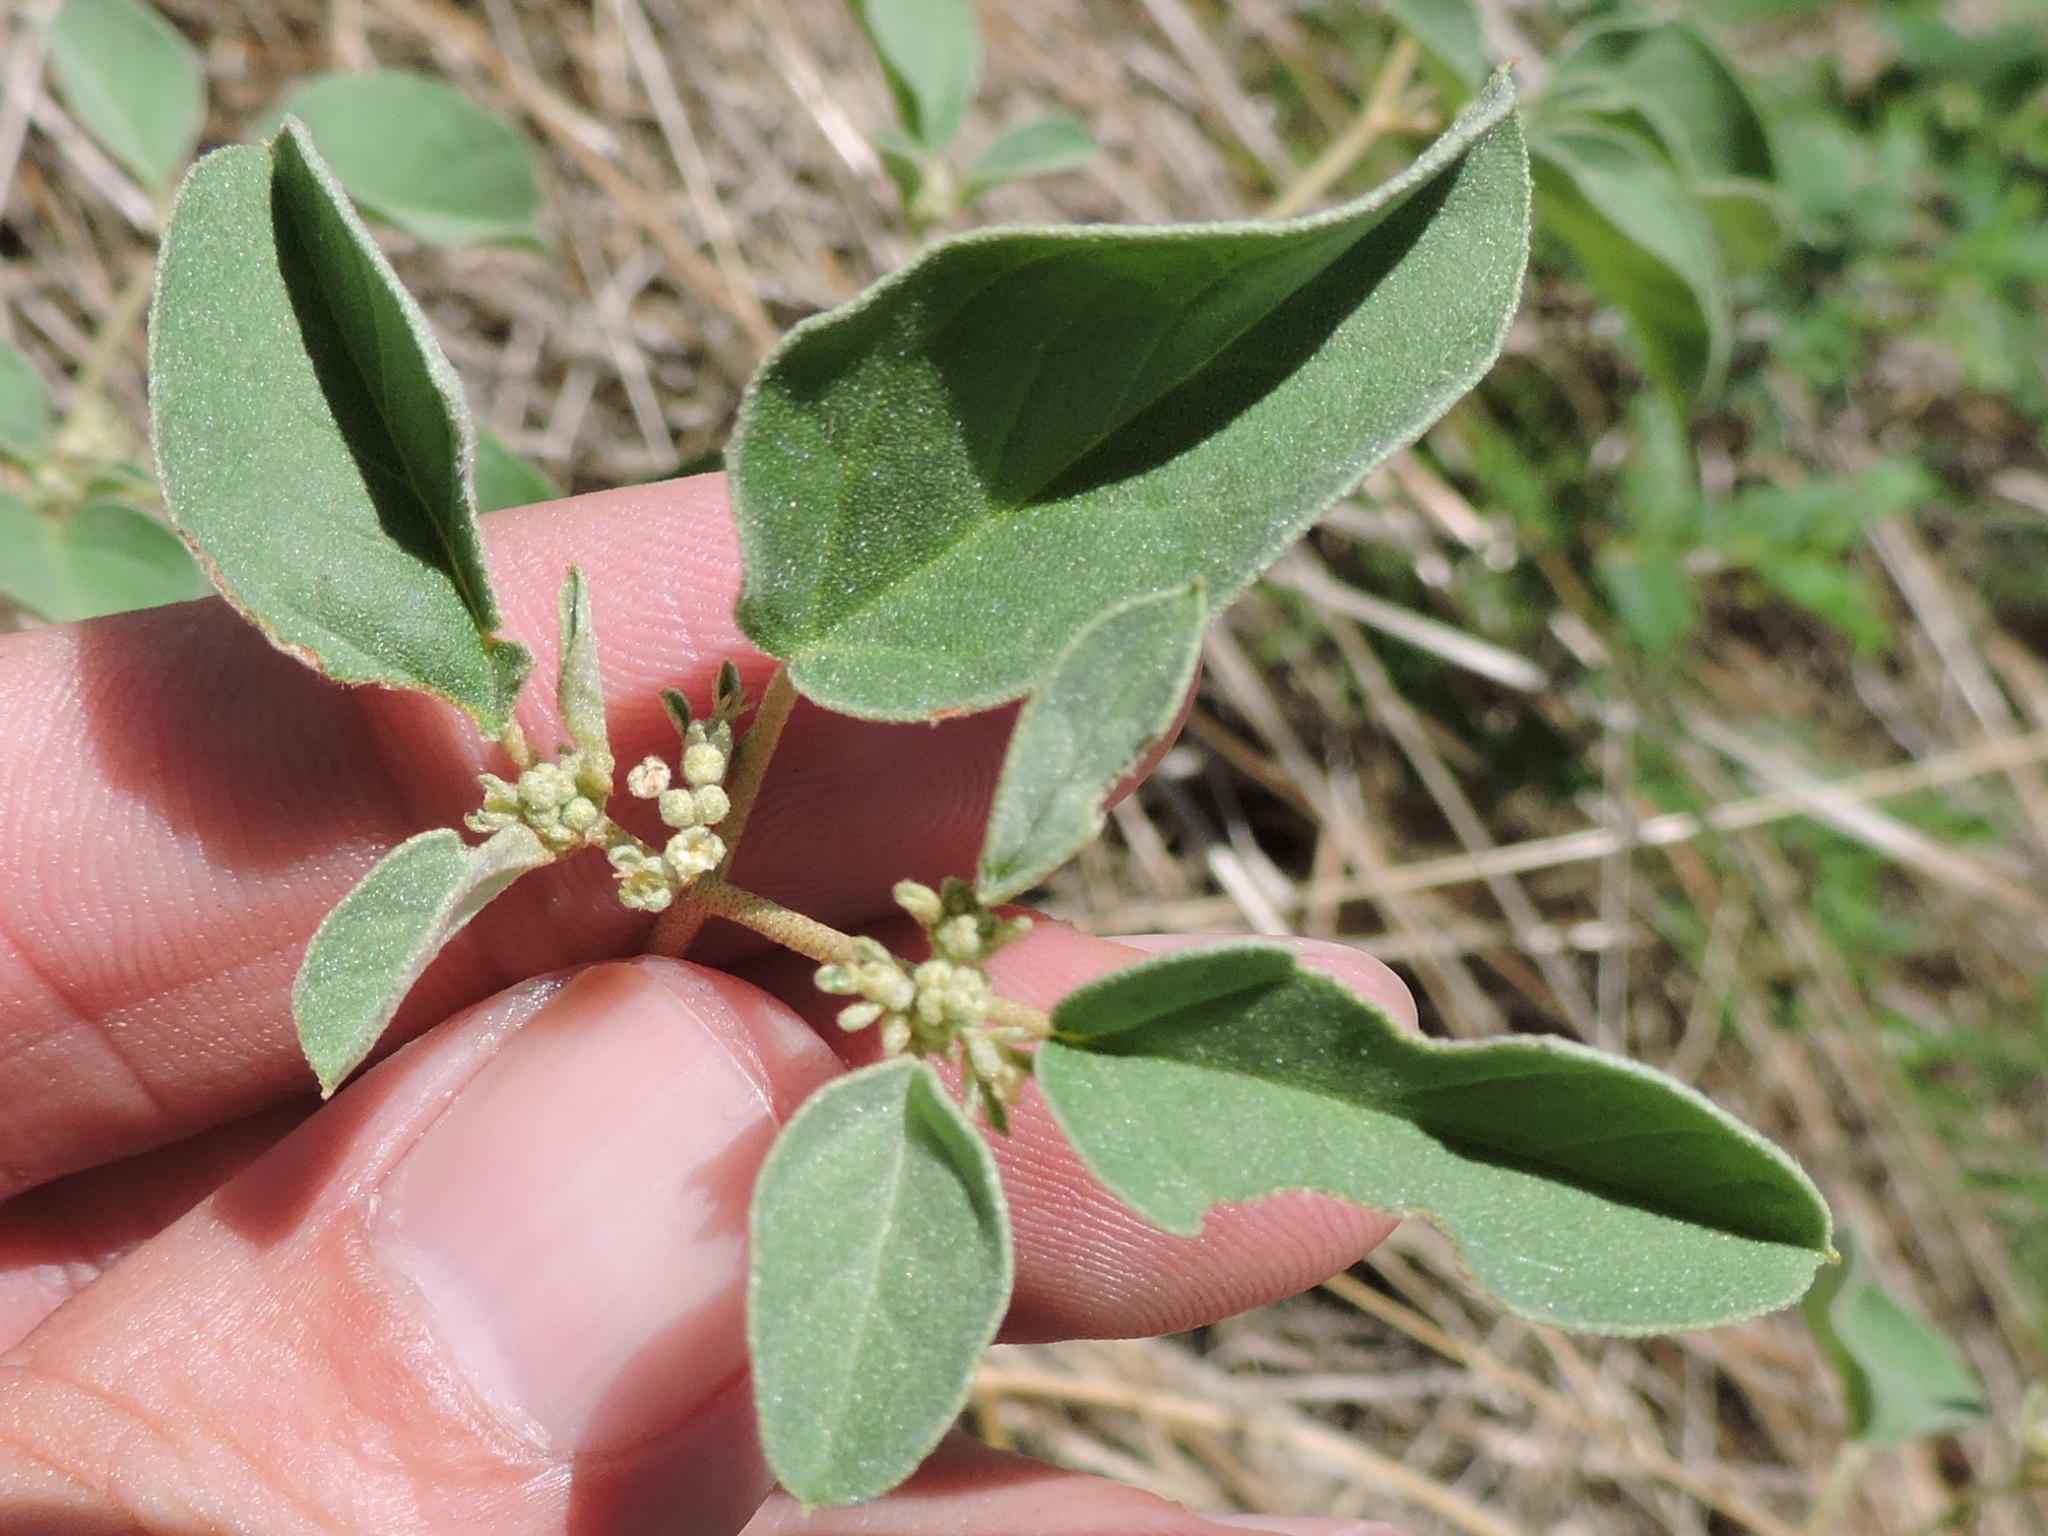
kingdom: Plantae
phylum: Tracheophyta
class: Magnoliopsida
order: Malpighiales
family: Euphorbiaceae
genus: Croton
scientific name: Croton monanthogynus
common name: One-seed croton
